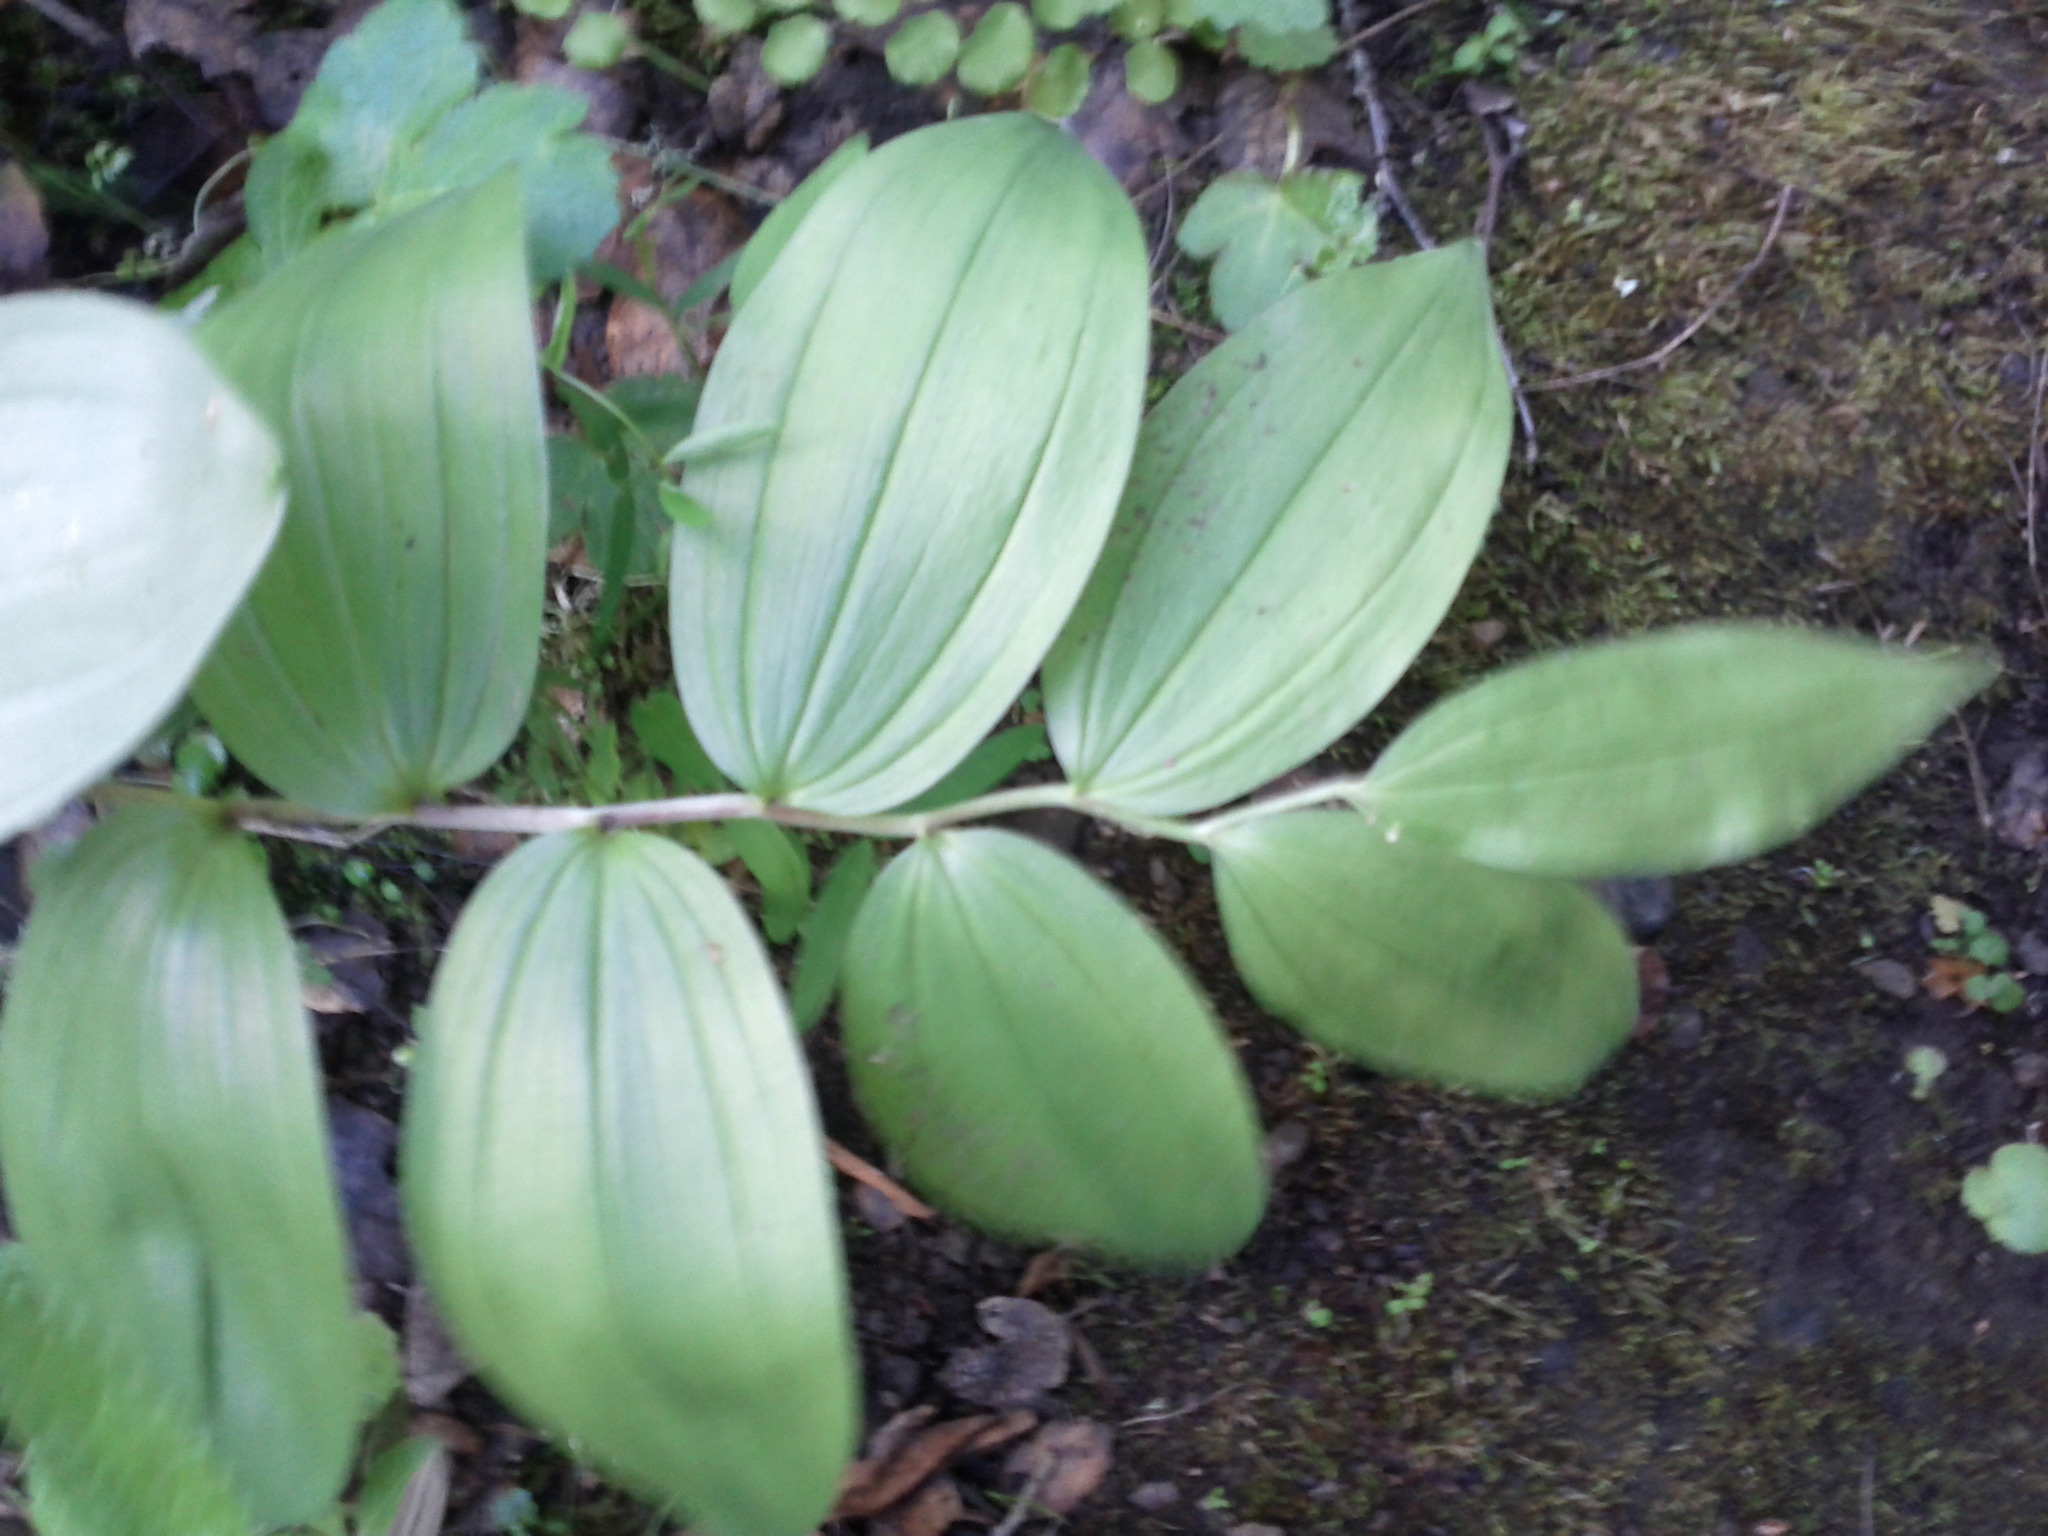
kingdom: Plantae
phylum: Tracheophyta
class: Liliopsida
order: Asparagales
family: Asparagaceae
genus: Maianthemum
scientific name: Maianthemum racemosum
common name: False spikenard
